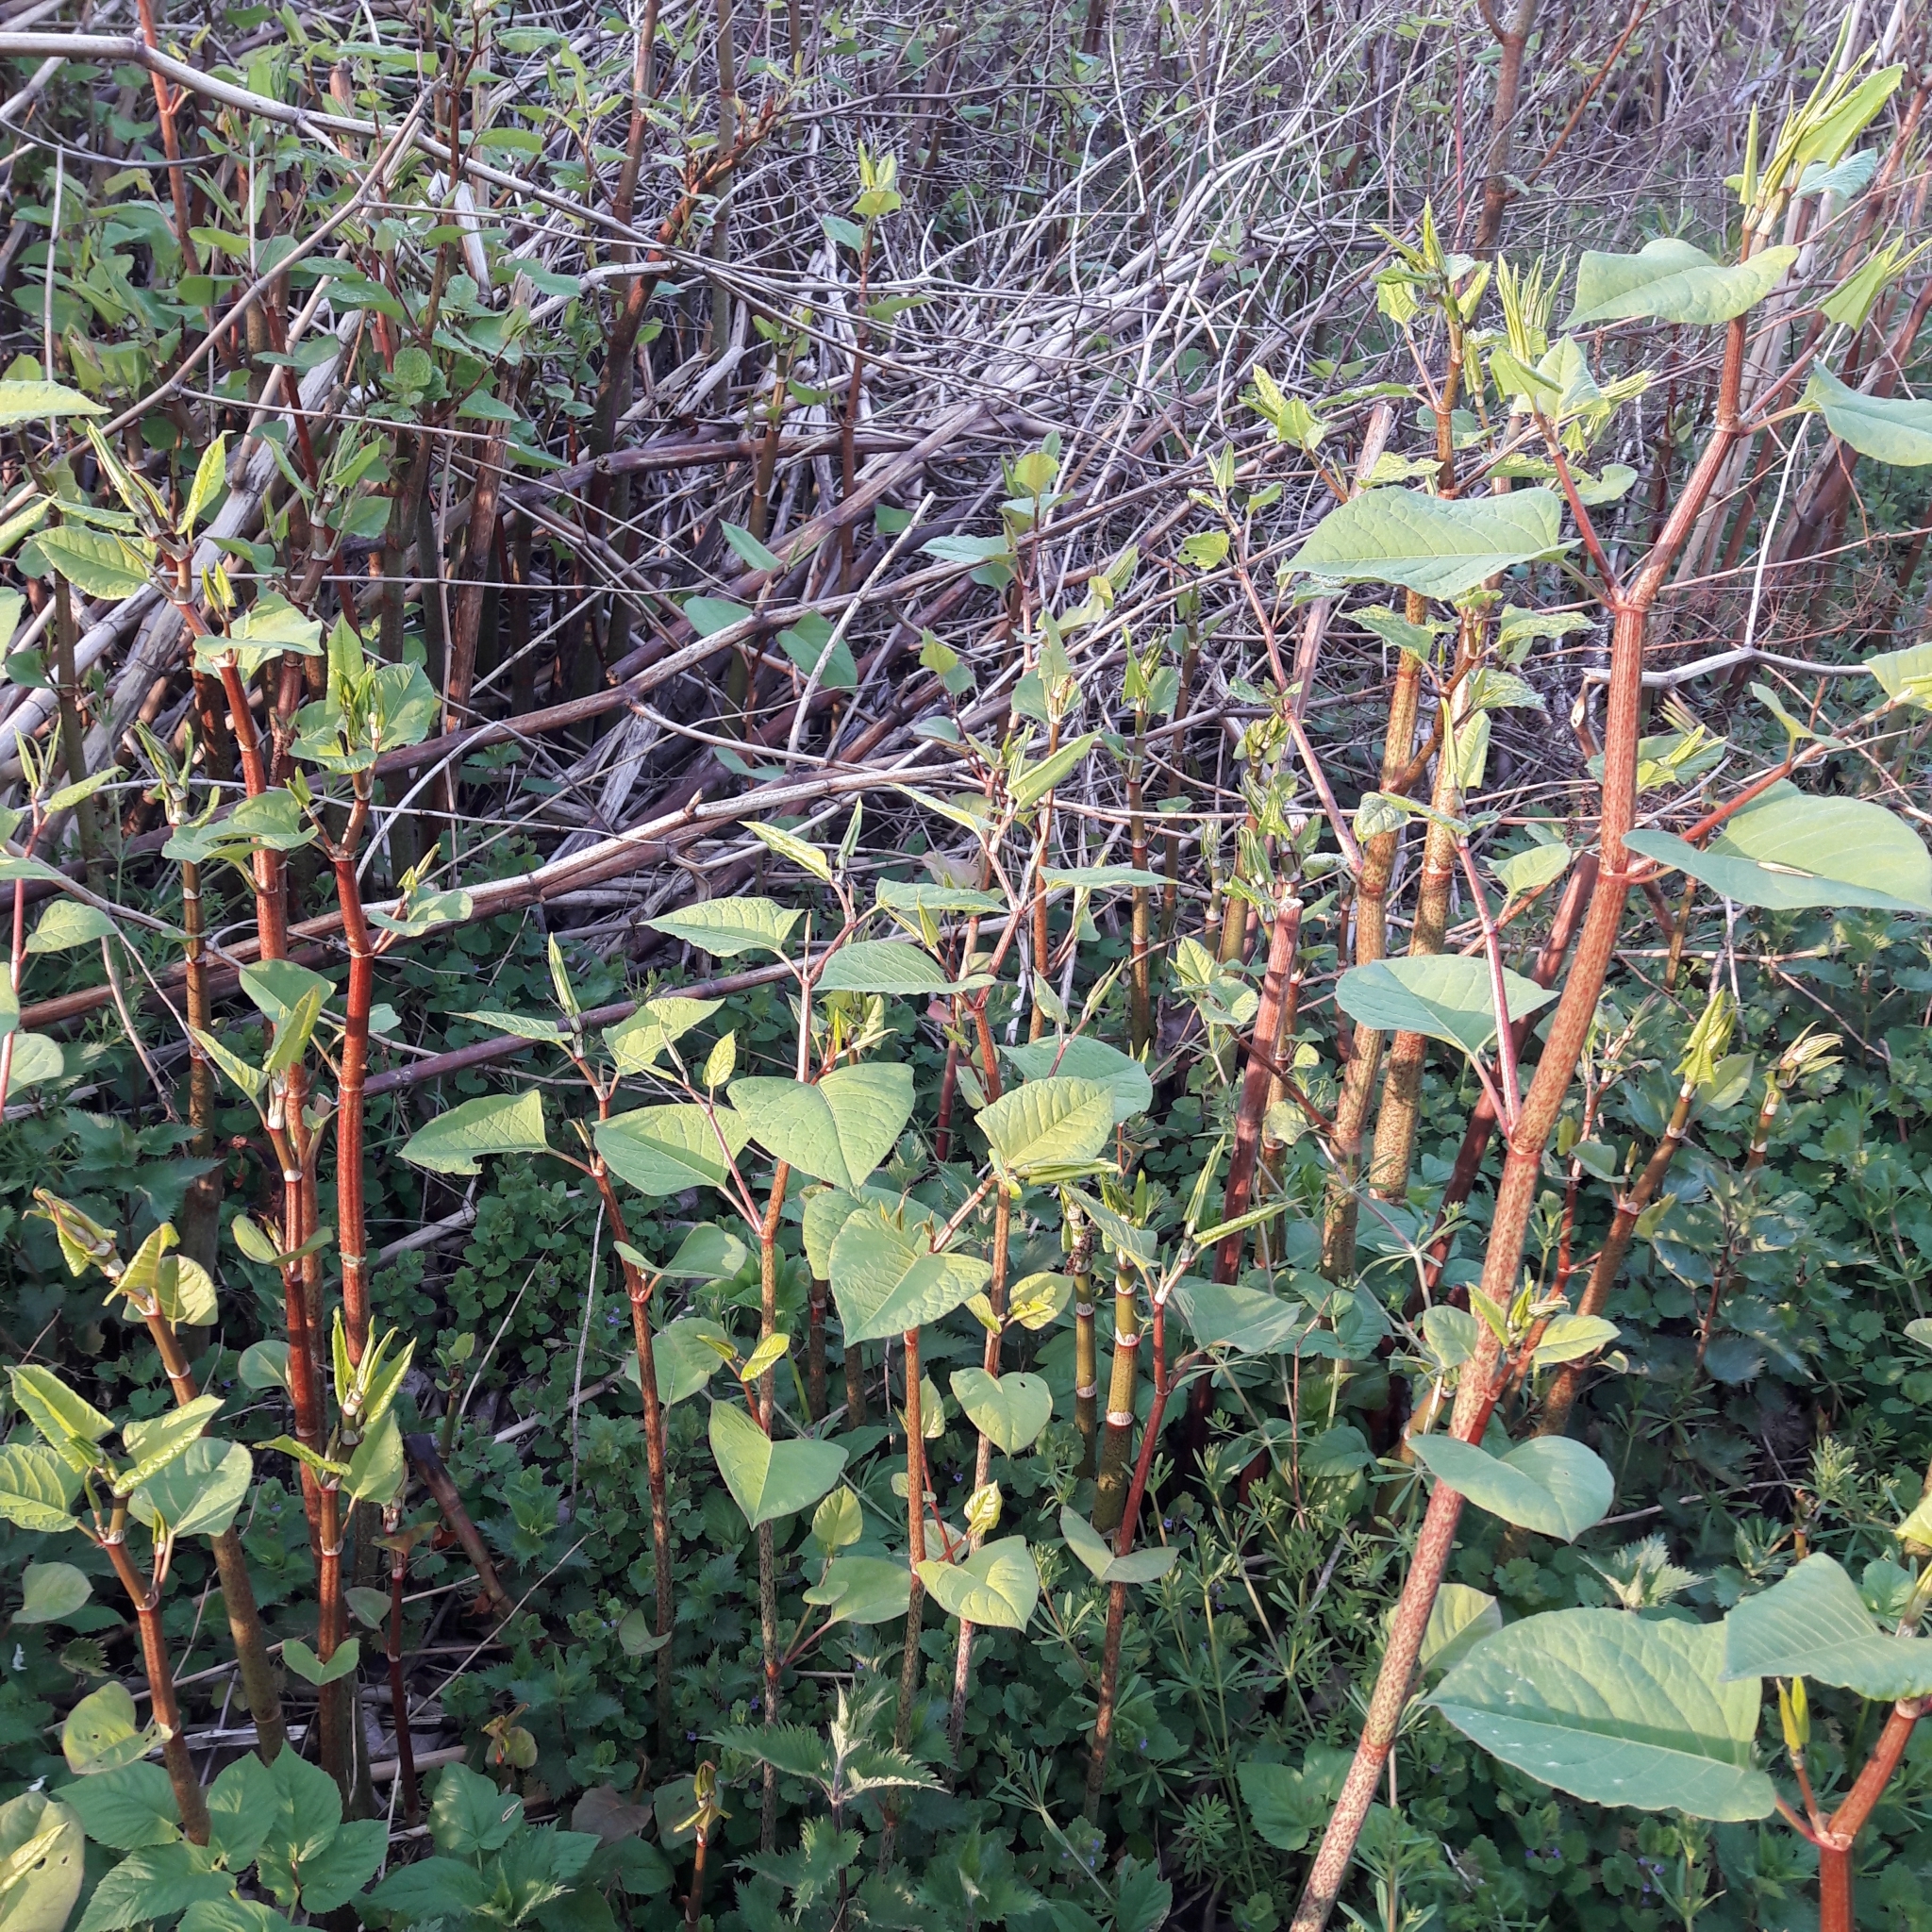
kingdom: Plantae
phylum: Tracheophyta
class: Magnoliopsida
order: Caryophyllales
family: Polygonaceae
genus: Reynoutria
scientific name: Reynoutria japonica
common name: Japanese knotweed
